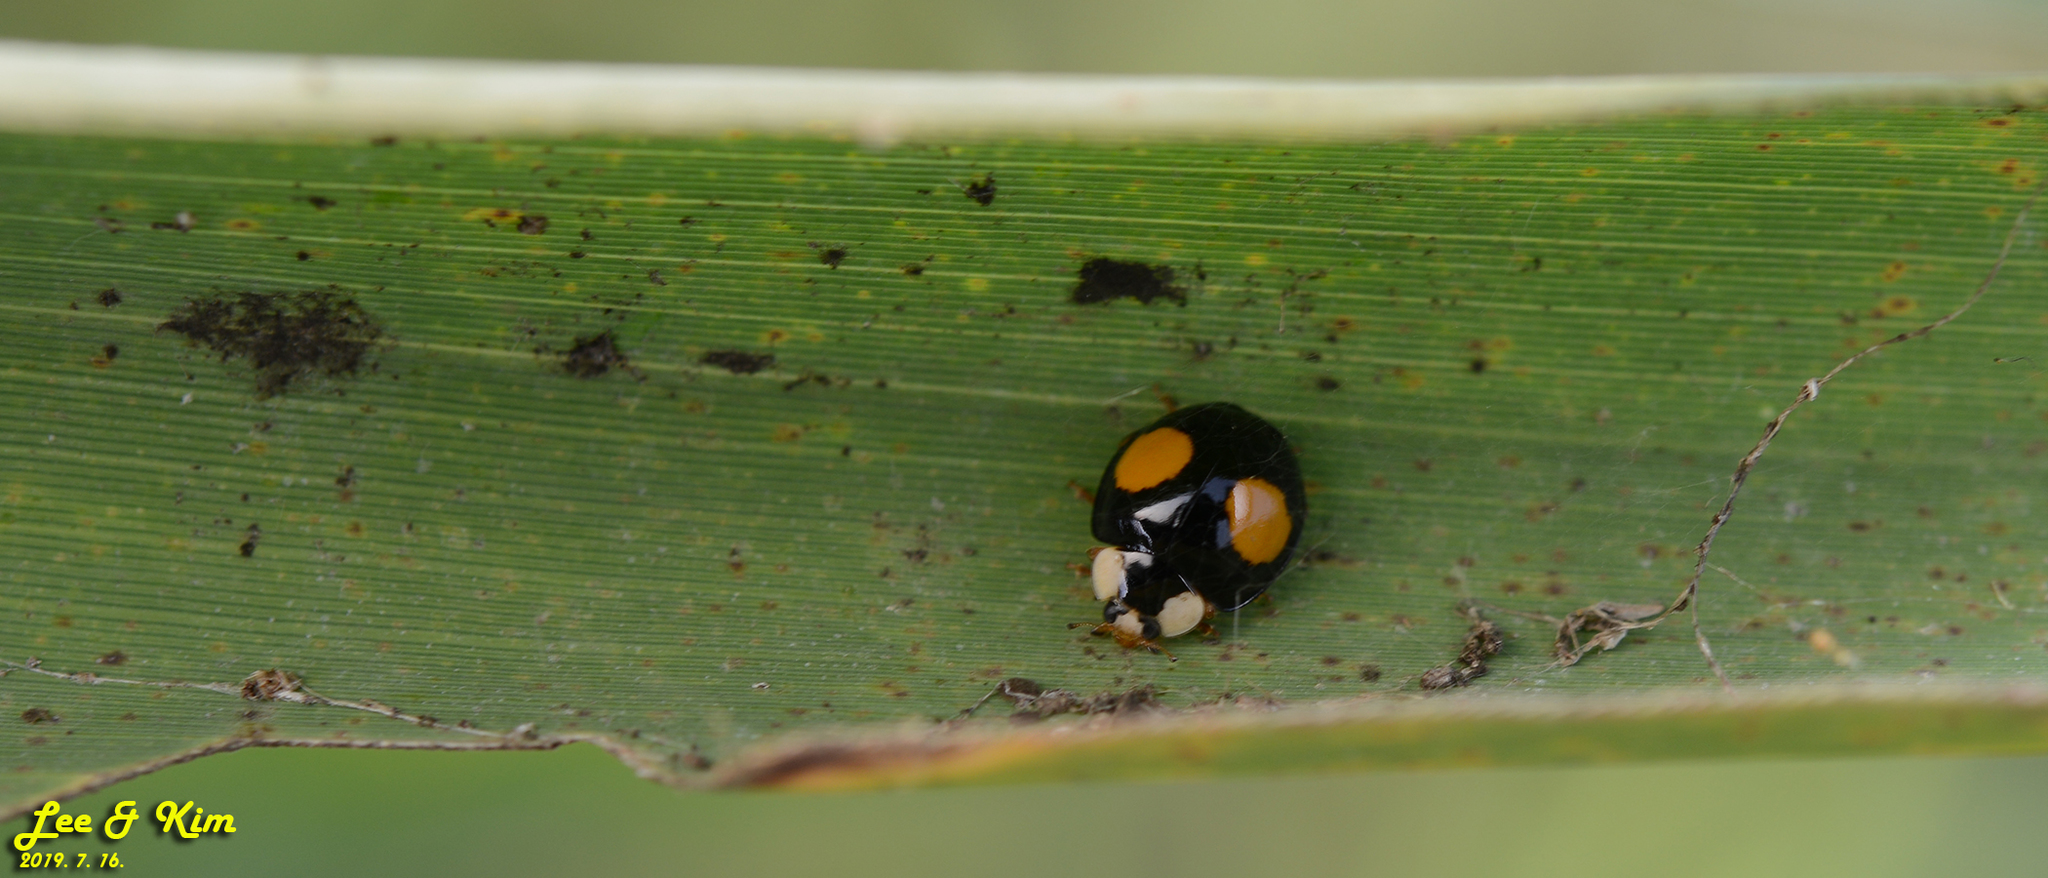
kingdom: Animalia
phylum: Arthropoda
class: Insecta
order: Coleoptera
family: Coccinellidae
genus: Harmonia
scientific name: Harmonia axyridis
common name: Harlequin ladybird
